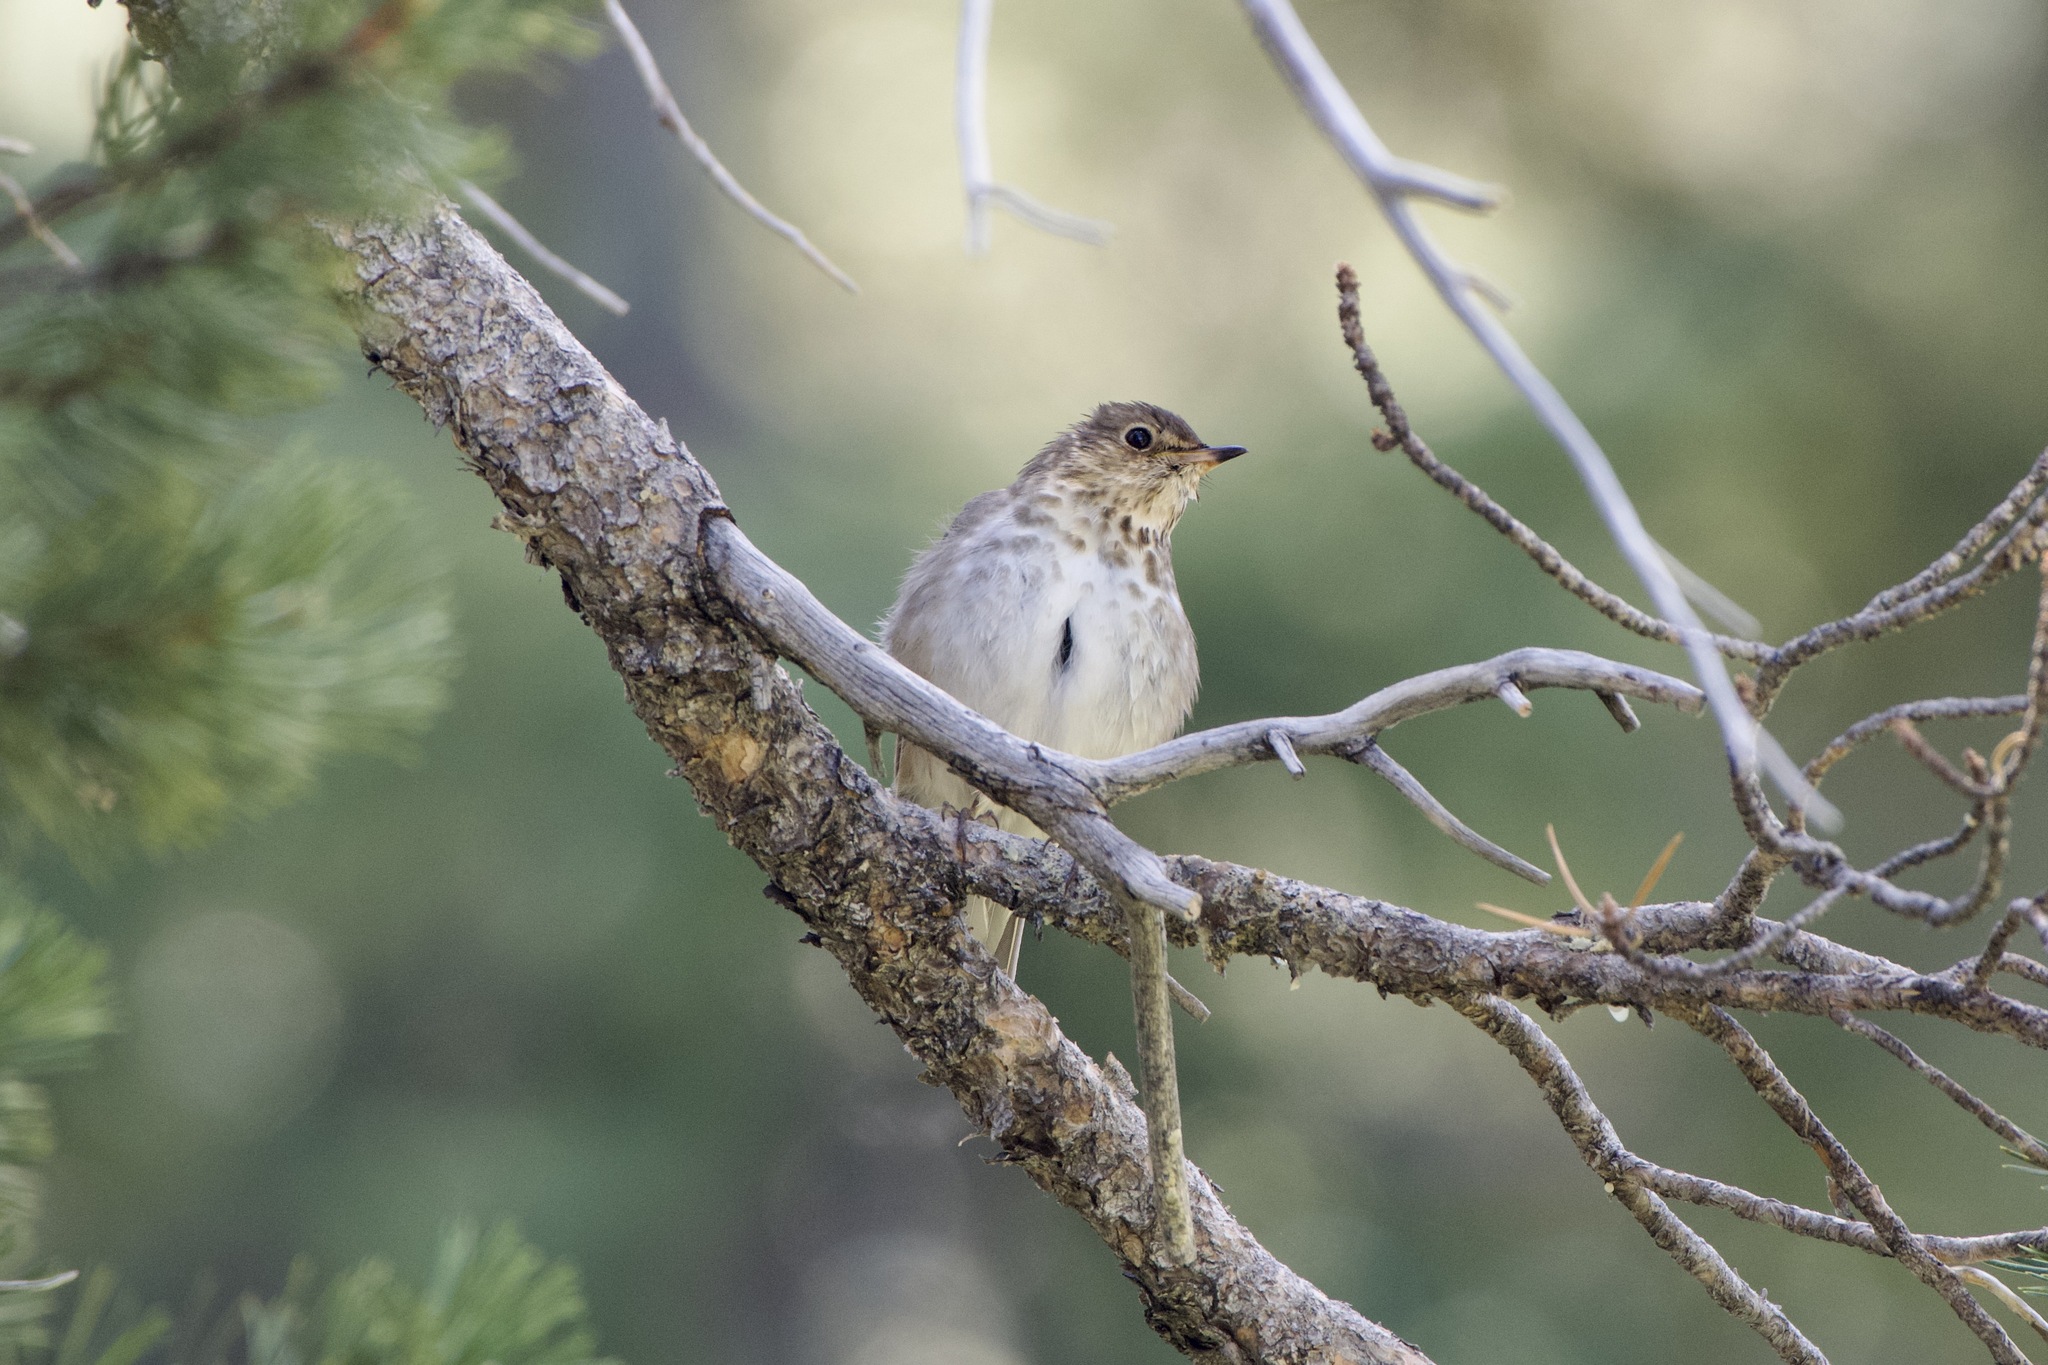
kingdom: Animalia
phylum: Chordata
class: Aves
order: Passeriformes
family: Turdidae
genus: Catharus
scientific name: Catharus ustulatus
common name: Swainson's thrush
